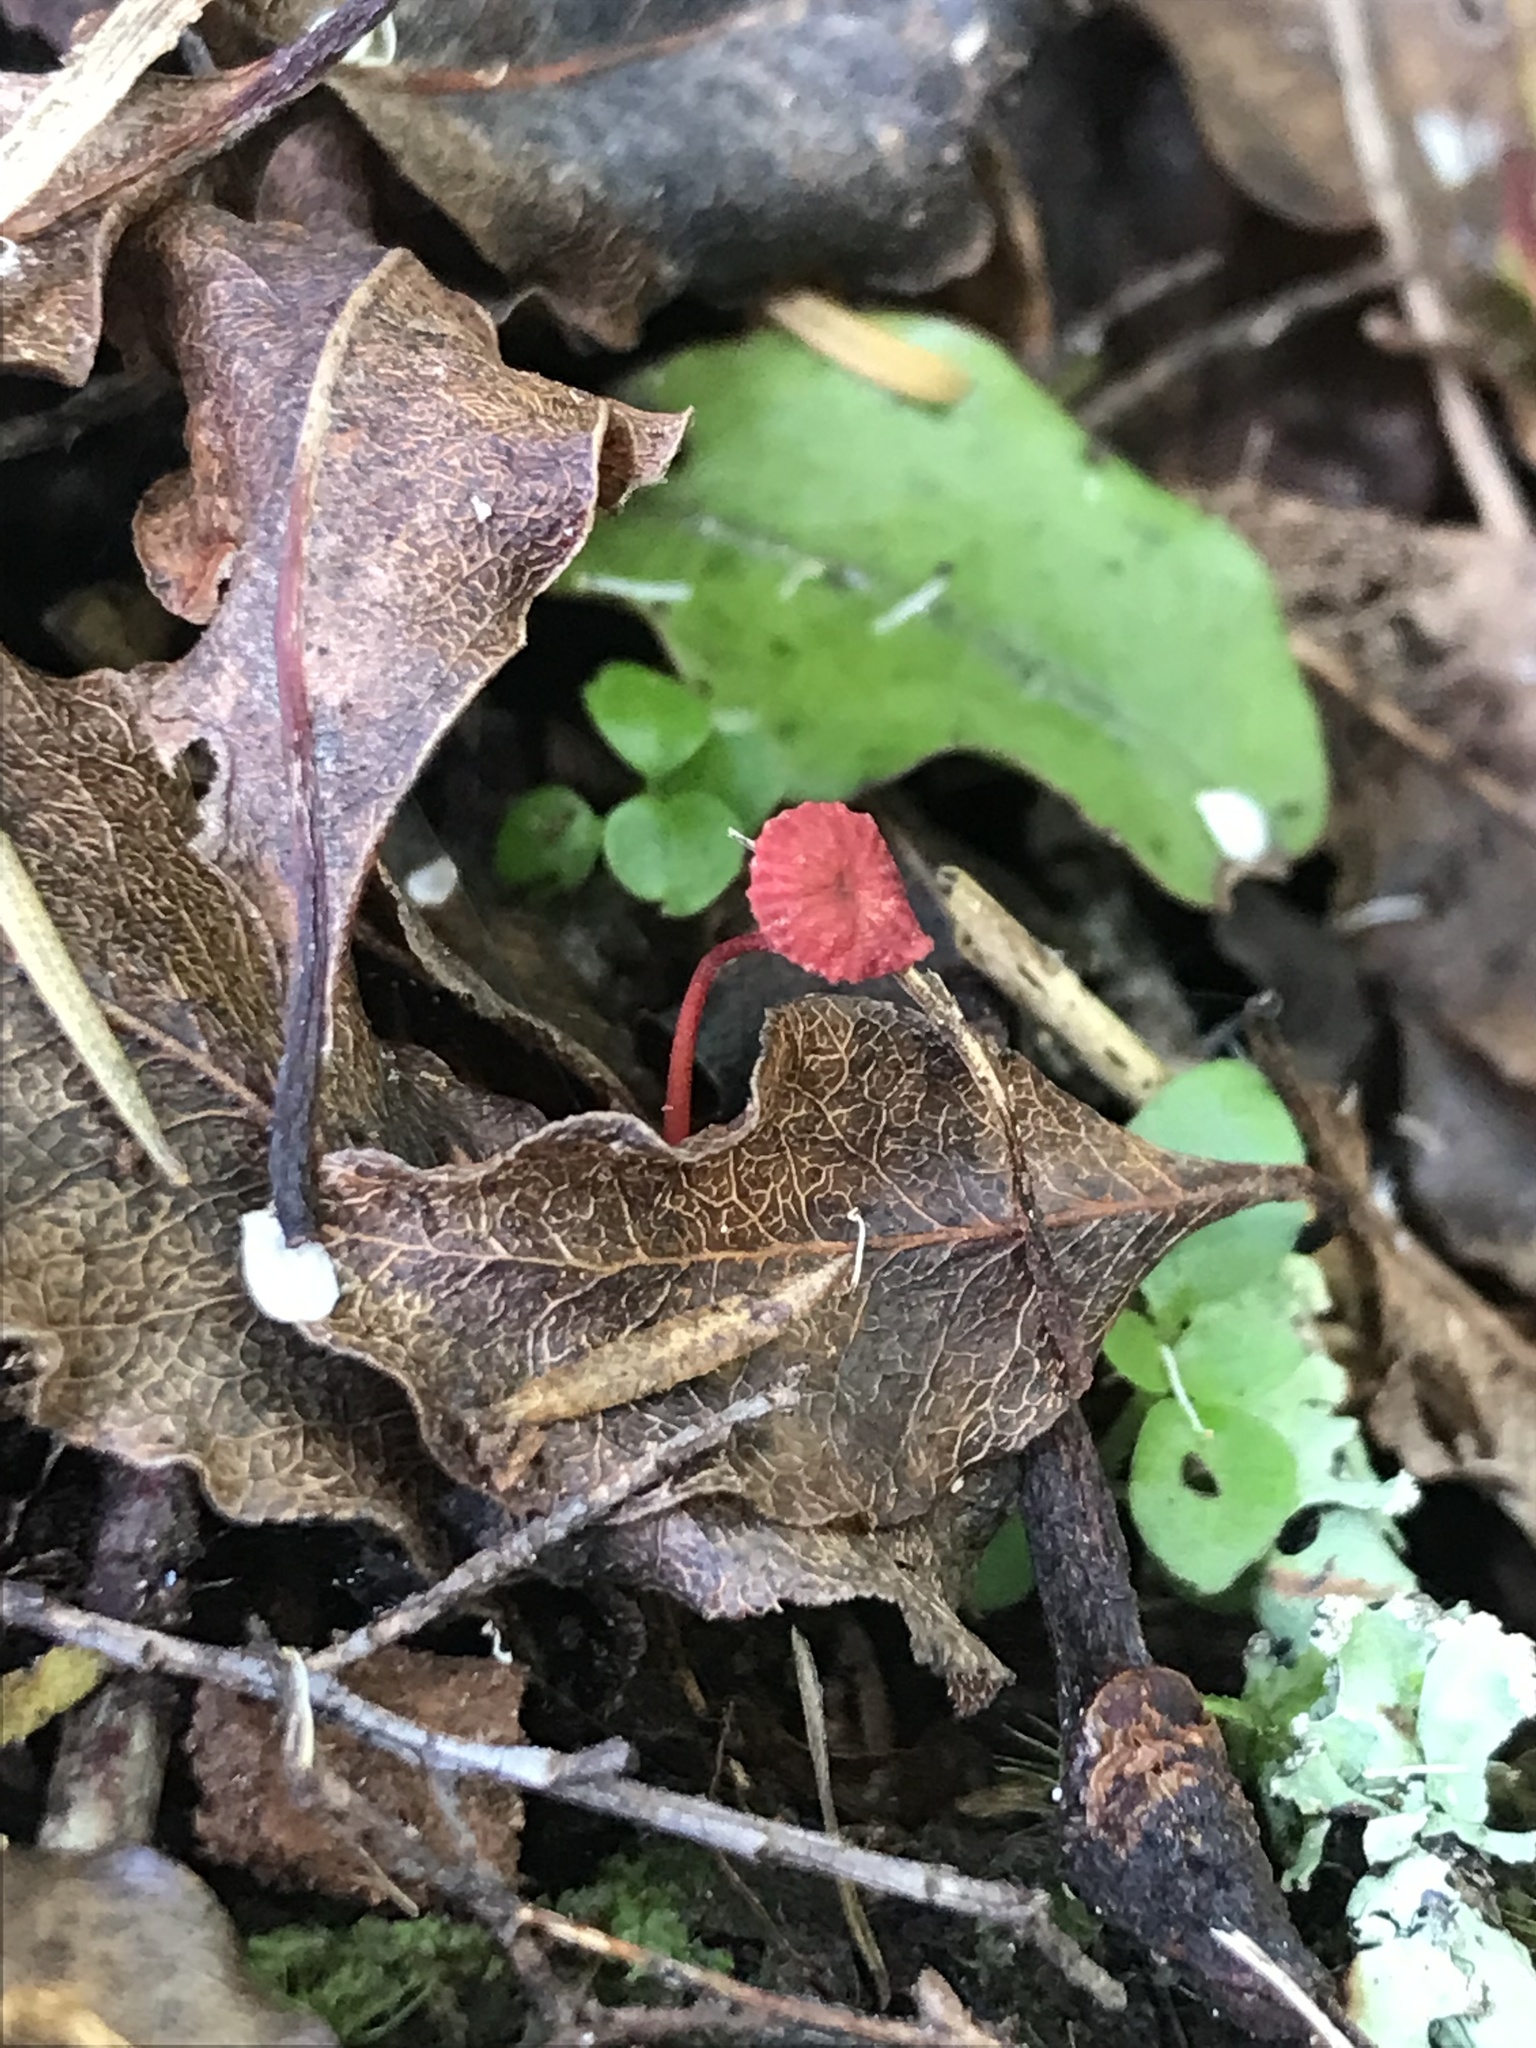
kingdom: Fungi
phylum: Basidiomycota
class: Agaricomycetes
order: Agaricales
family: Mycenaceae
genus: Mycena
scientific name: Mycena ura
